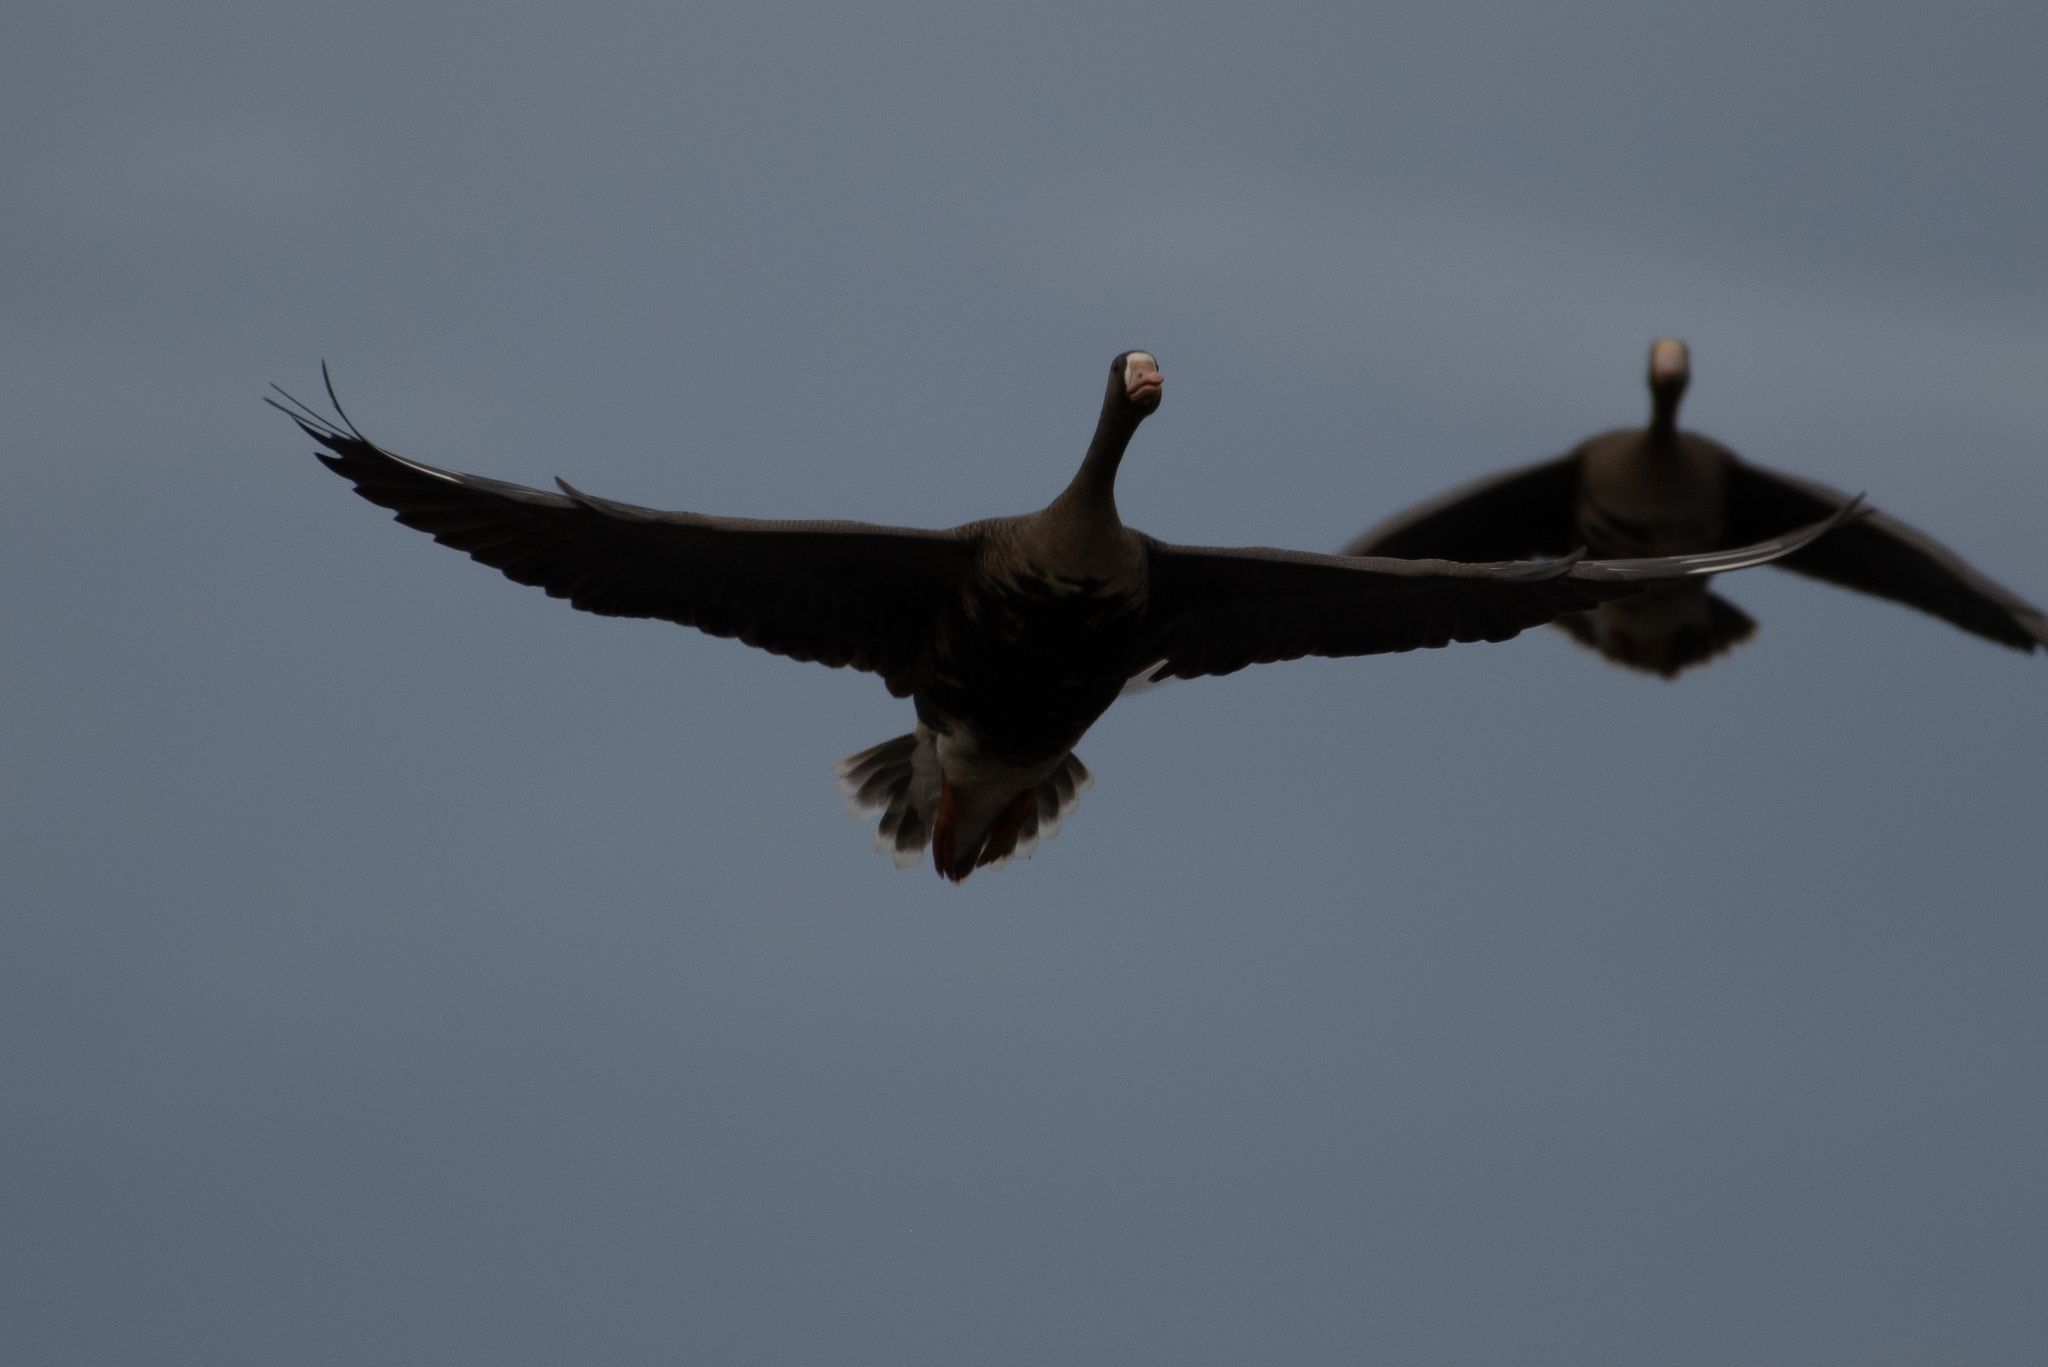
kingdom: Animalia
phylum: Chordata
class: Aves
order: Anseriformes
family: Anatidae
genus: Anser
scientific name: Anser albifrons
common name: Greater white-fronted goose
